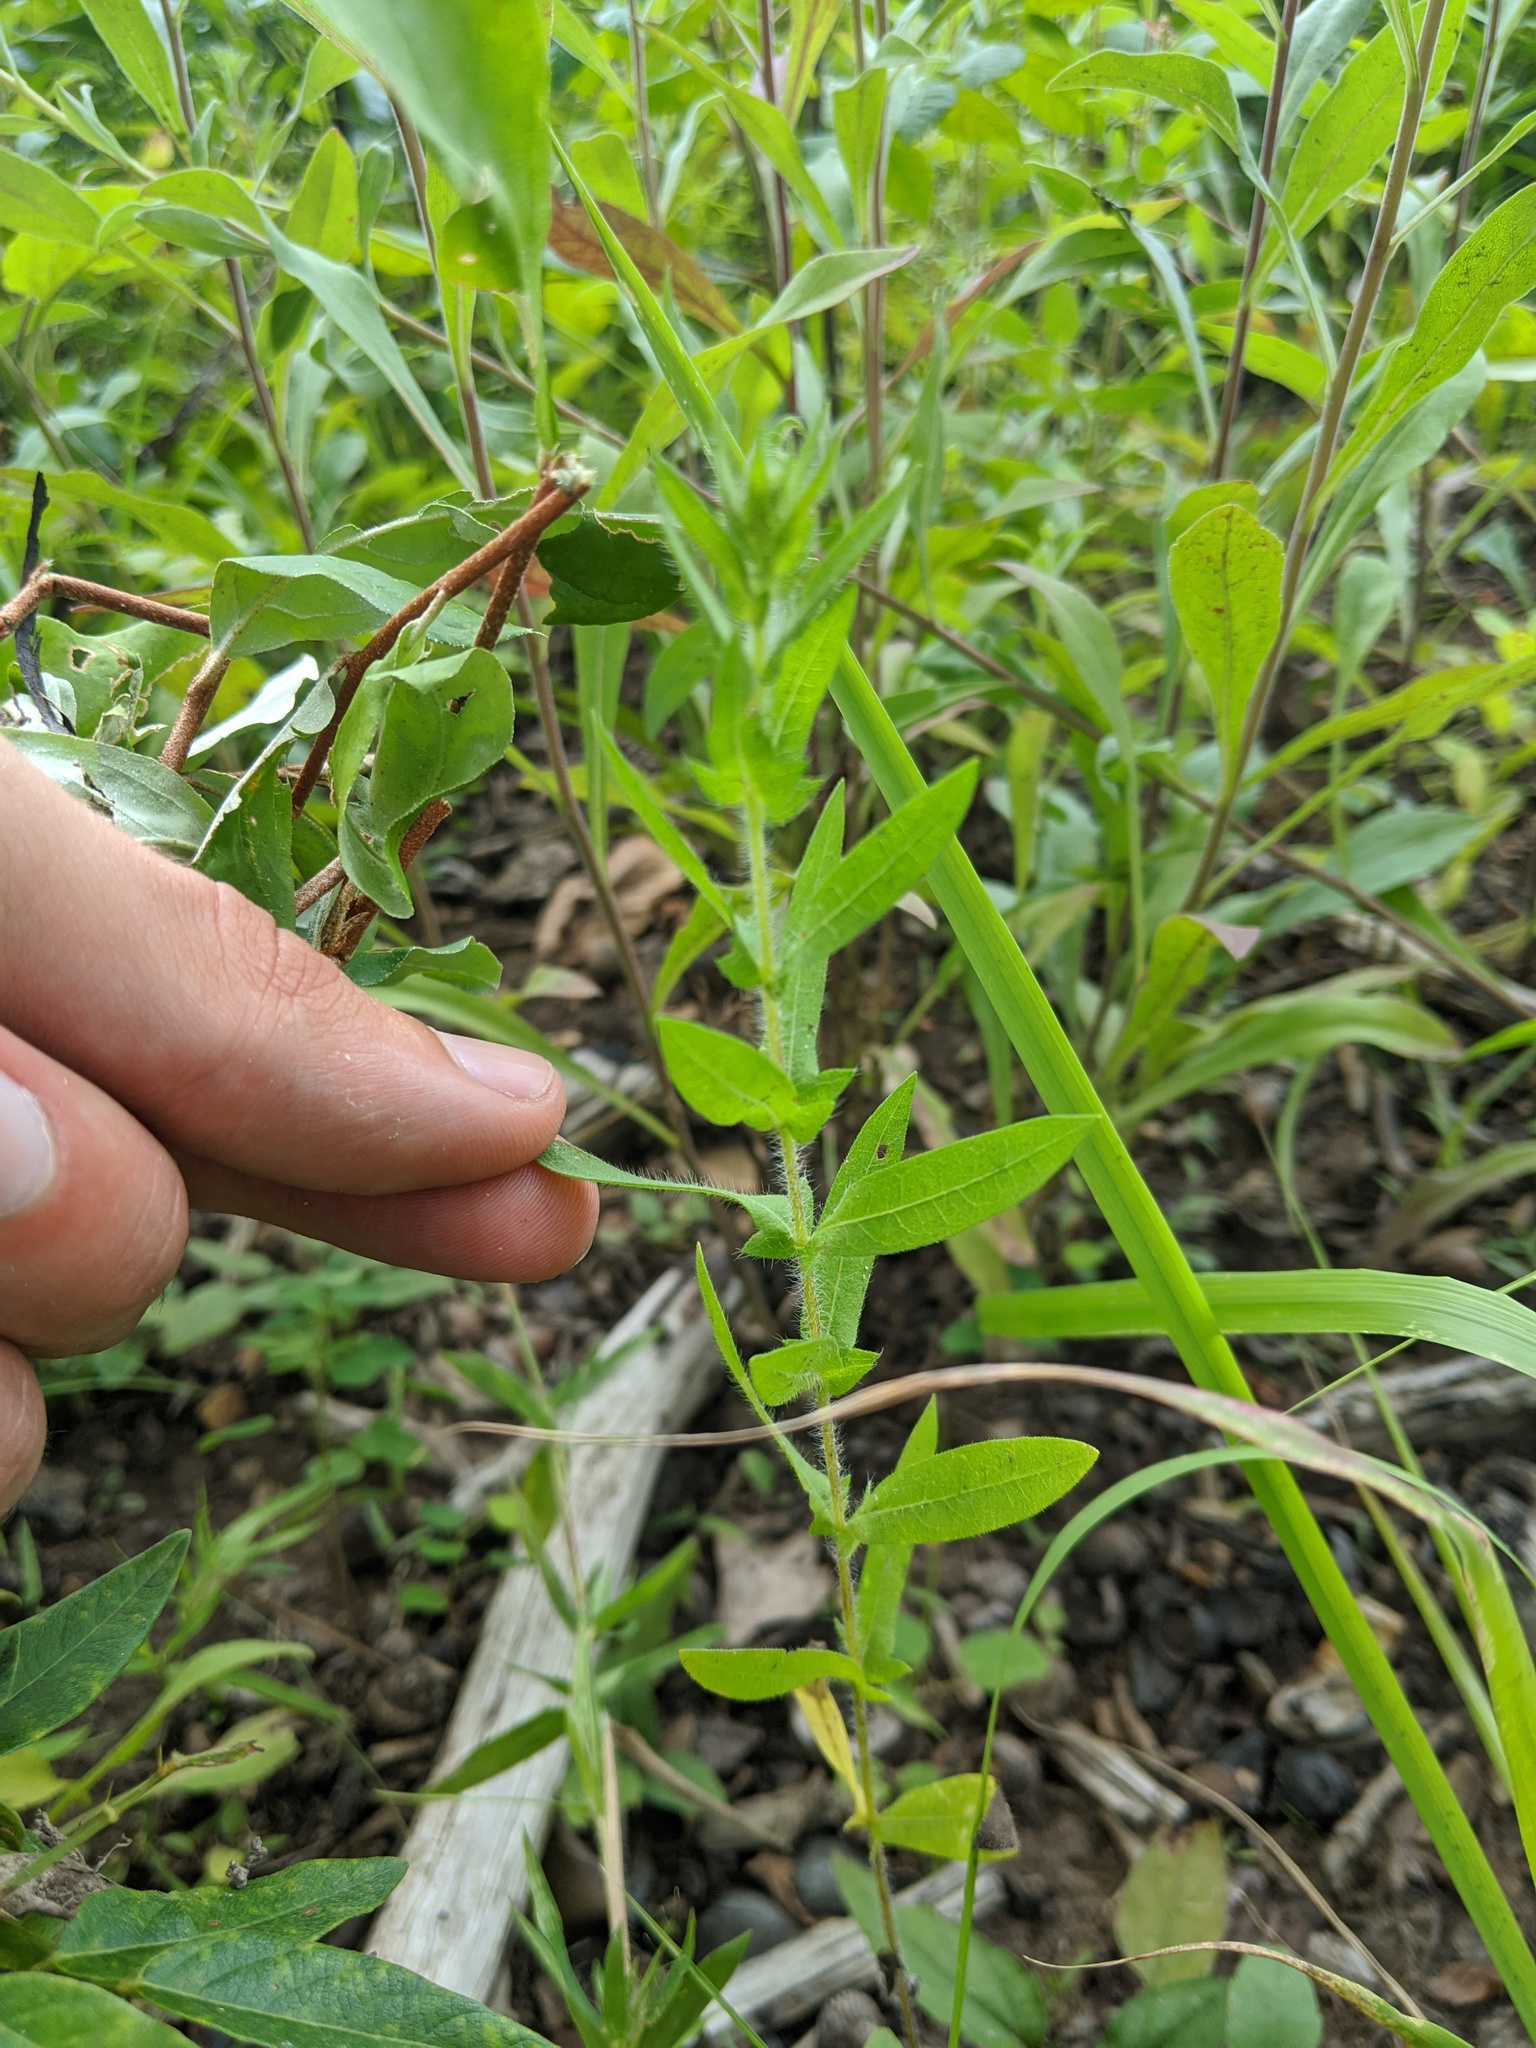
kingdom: Plantae
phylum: Tracheophyta
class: Magnoliopsida
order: Asterales
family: Asteraceae
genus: Ambrosia
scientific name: Ambrosia bidentata
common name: Southern ragweed
